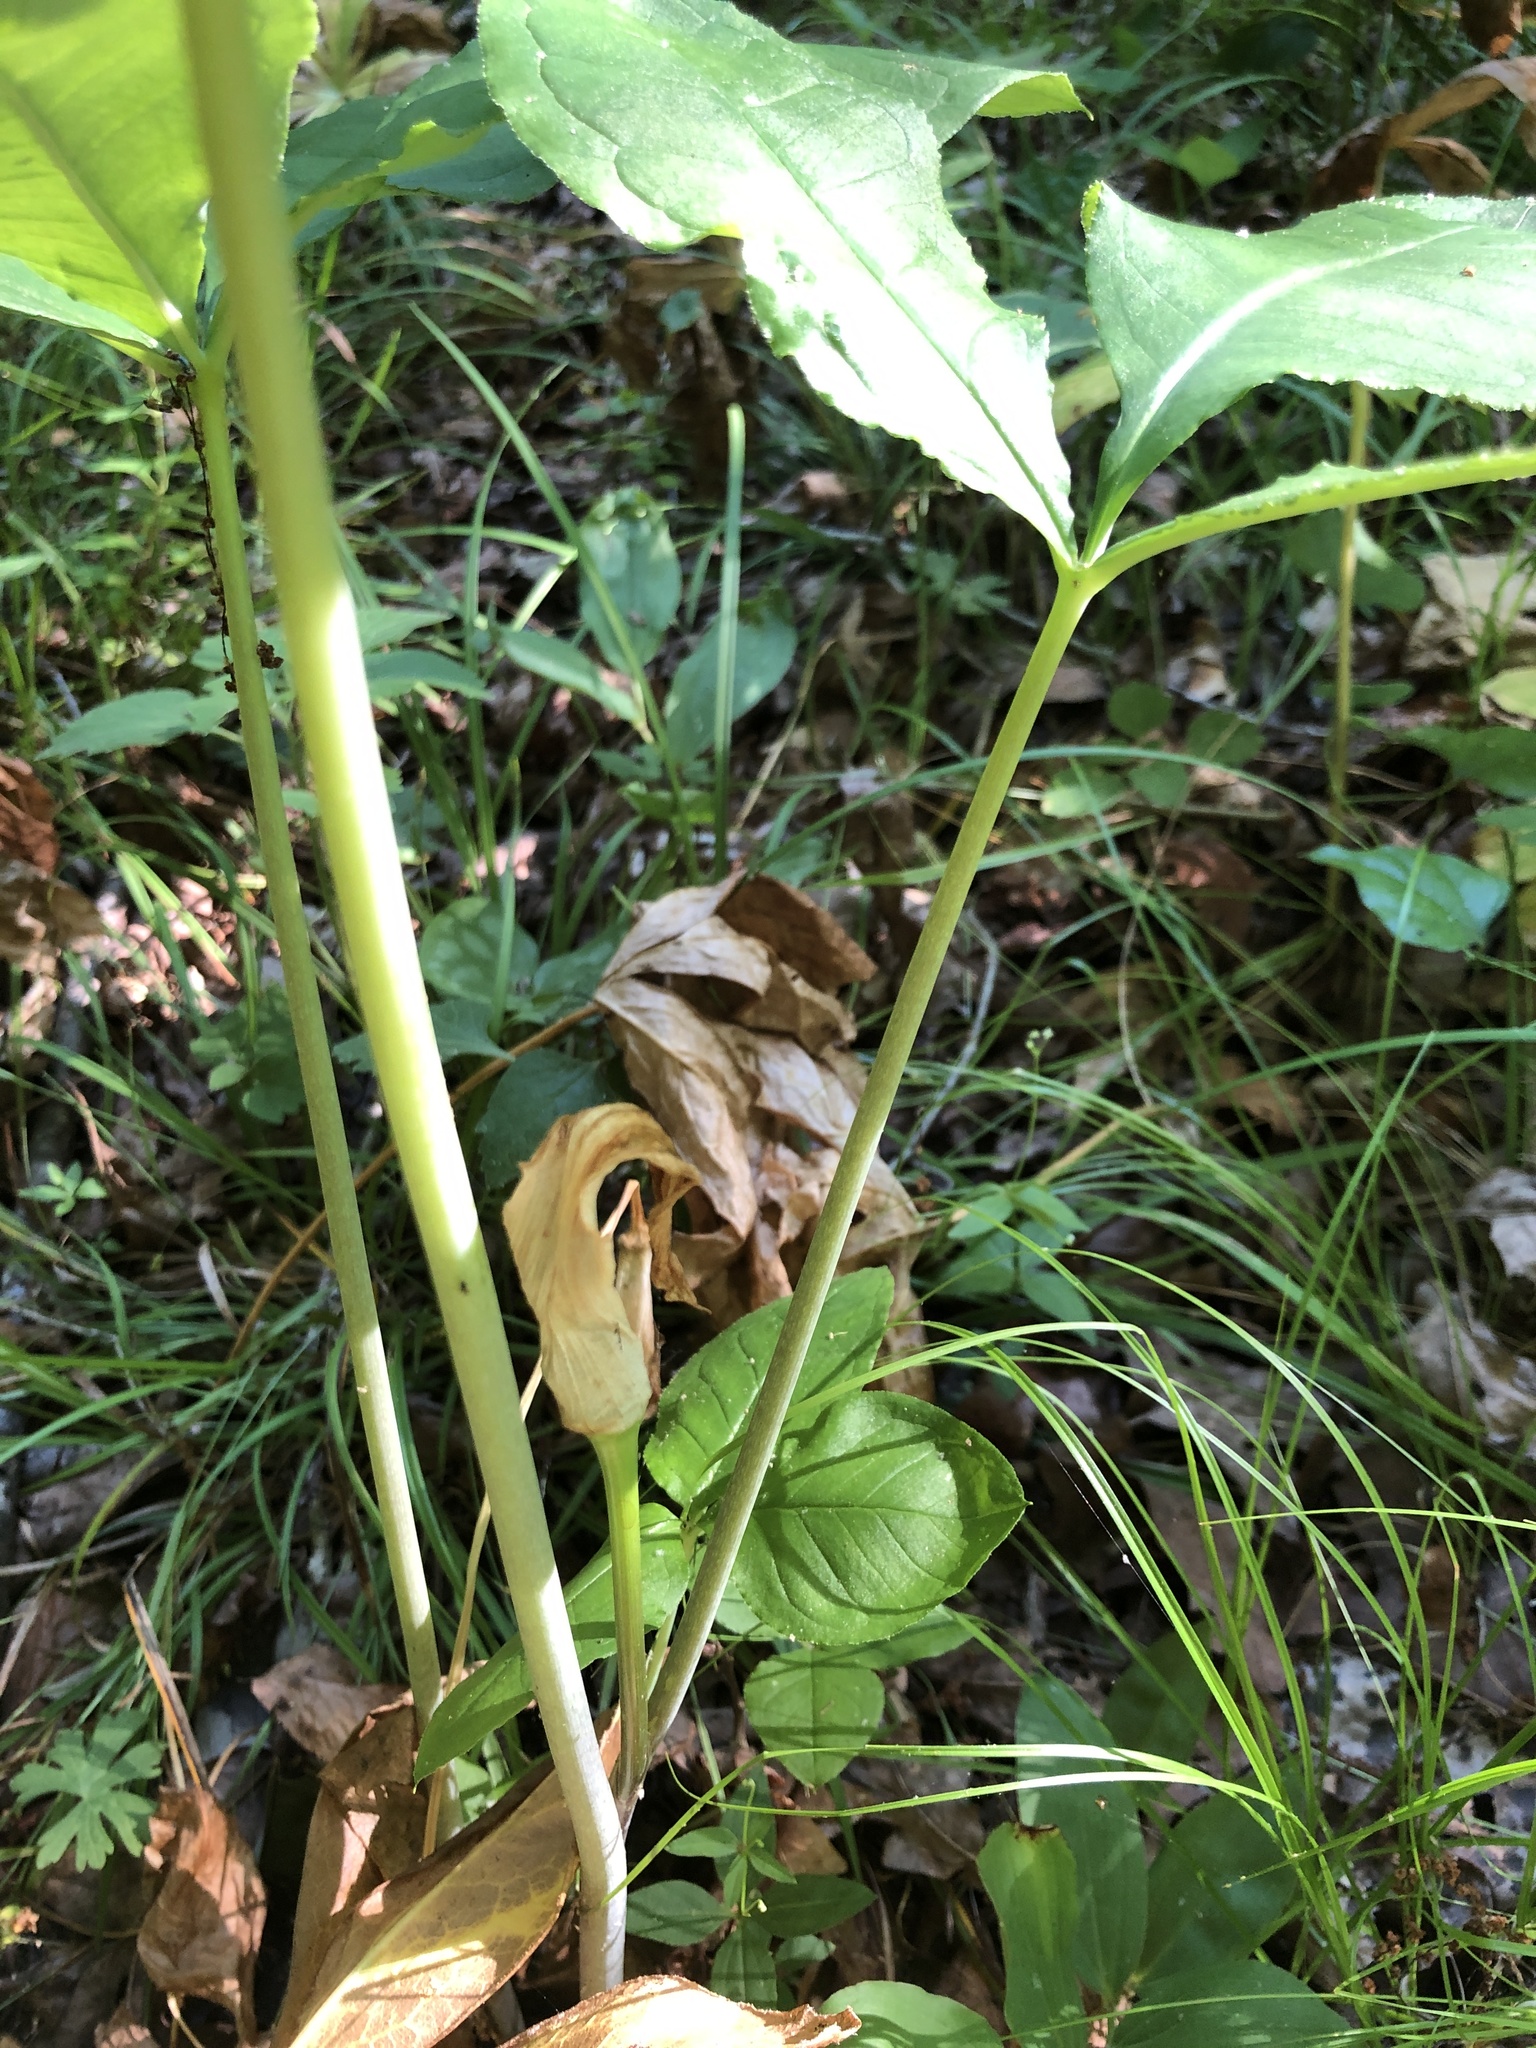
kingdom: Plantae
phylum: Tracheophyta
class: Liliopsida
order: Alismatales
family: Araceae
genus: Arisaema
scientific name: Arisaema pusillum
